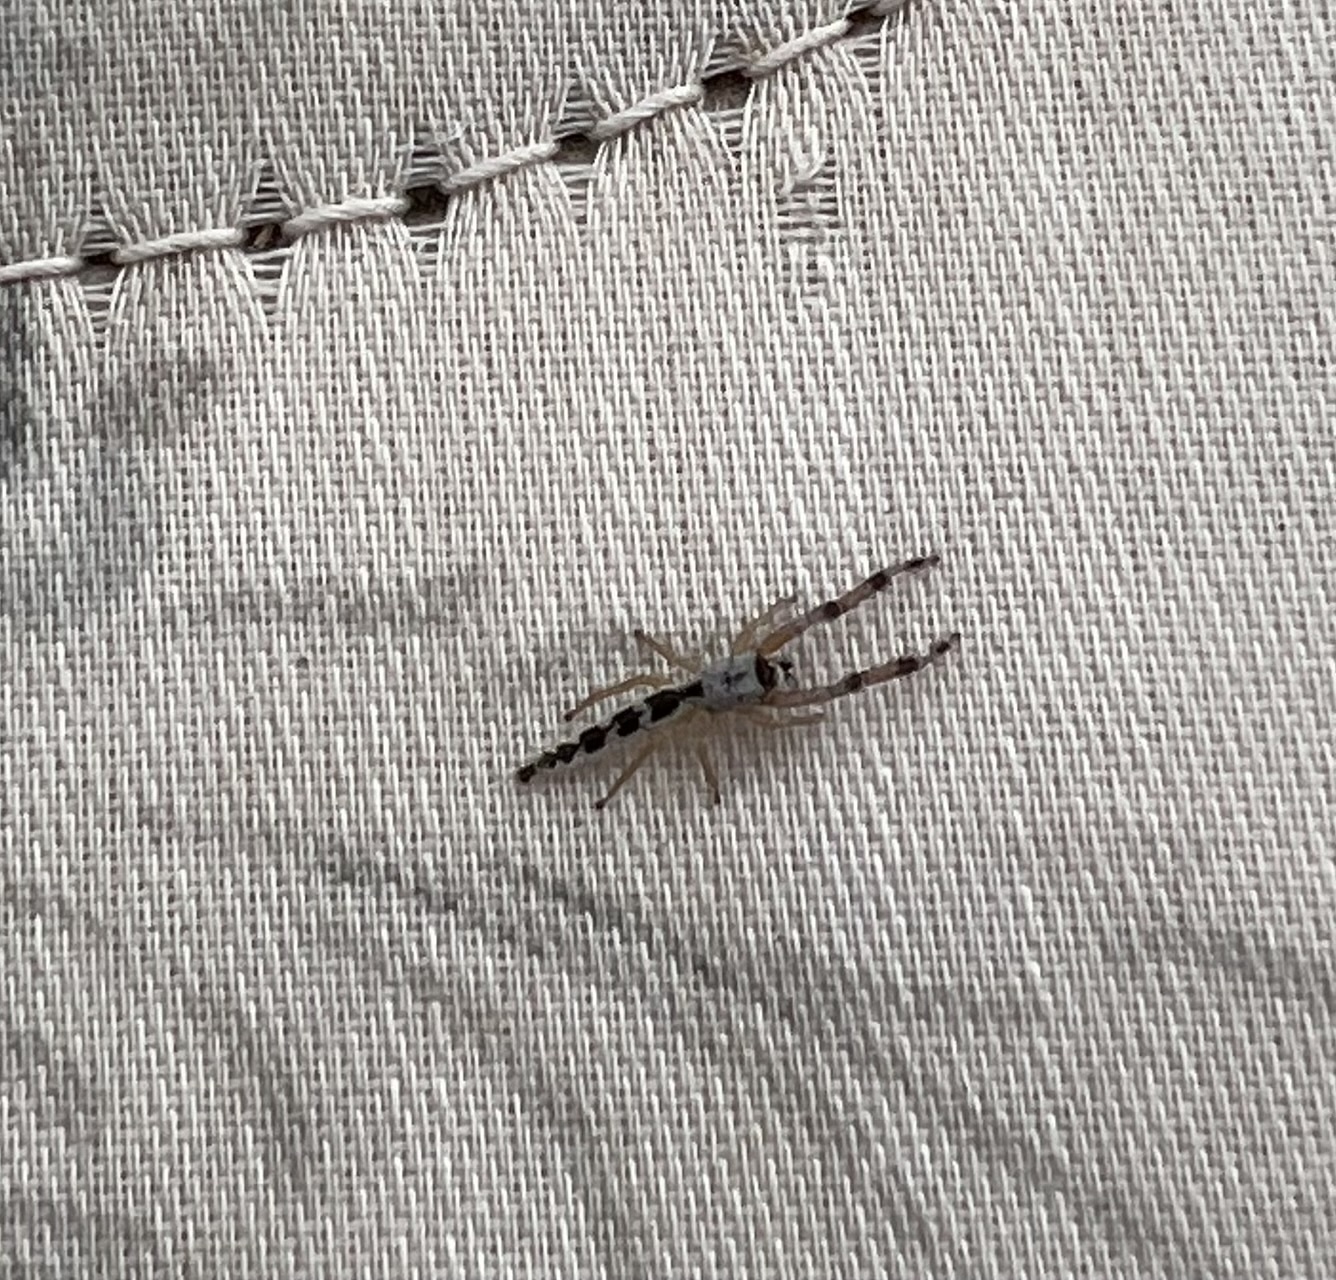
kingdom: Animalia
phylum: Arthropoda
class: Arachnida
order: Araneae
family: Salticidae
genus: Marpissa
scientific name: Marpissa pikei
